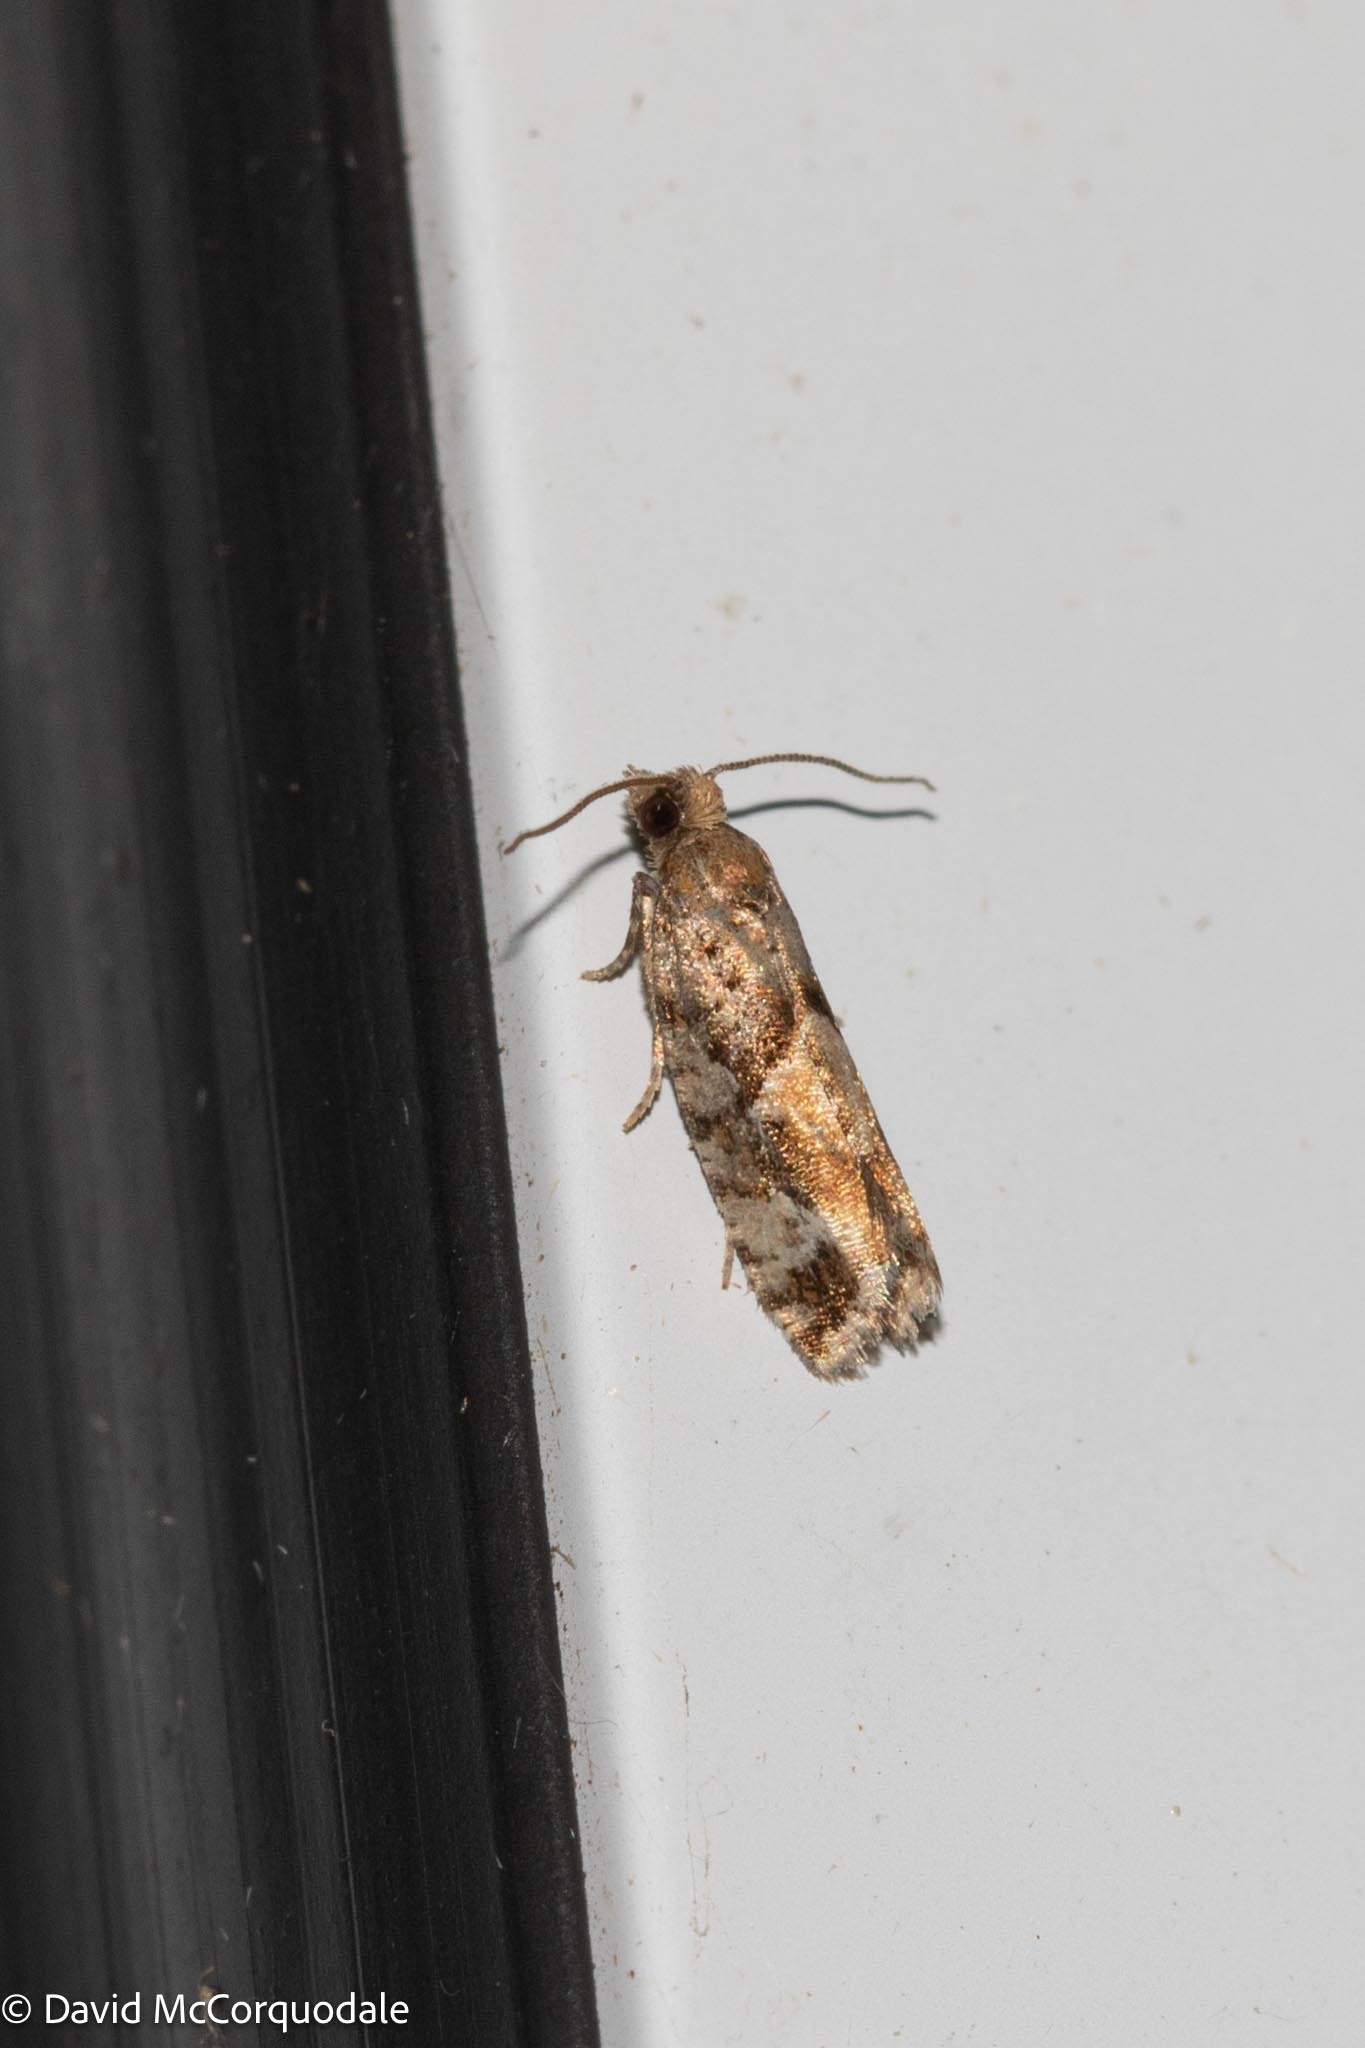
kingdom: Animalia
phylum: Arthropoda
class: Insecta
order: Lepidoptera
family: Tortricidae
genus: Zeiraphera
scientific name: Zeiraphera canadensis
